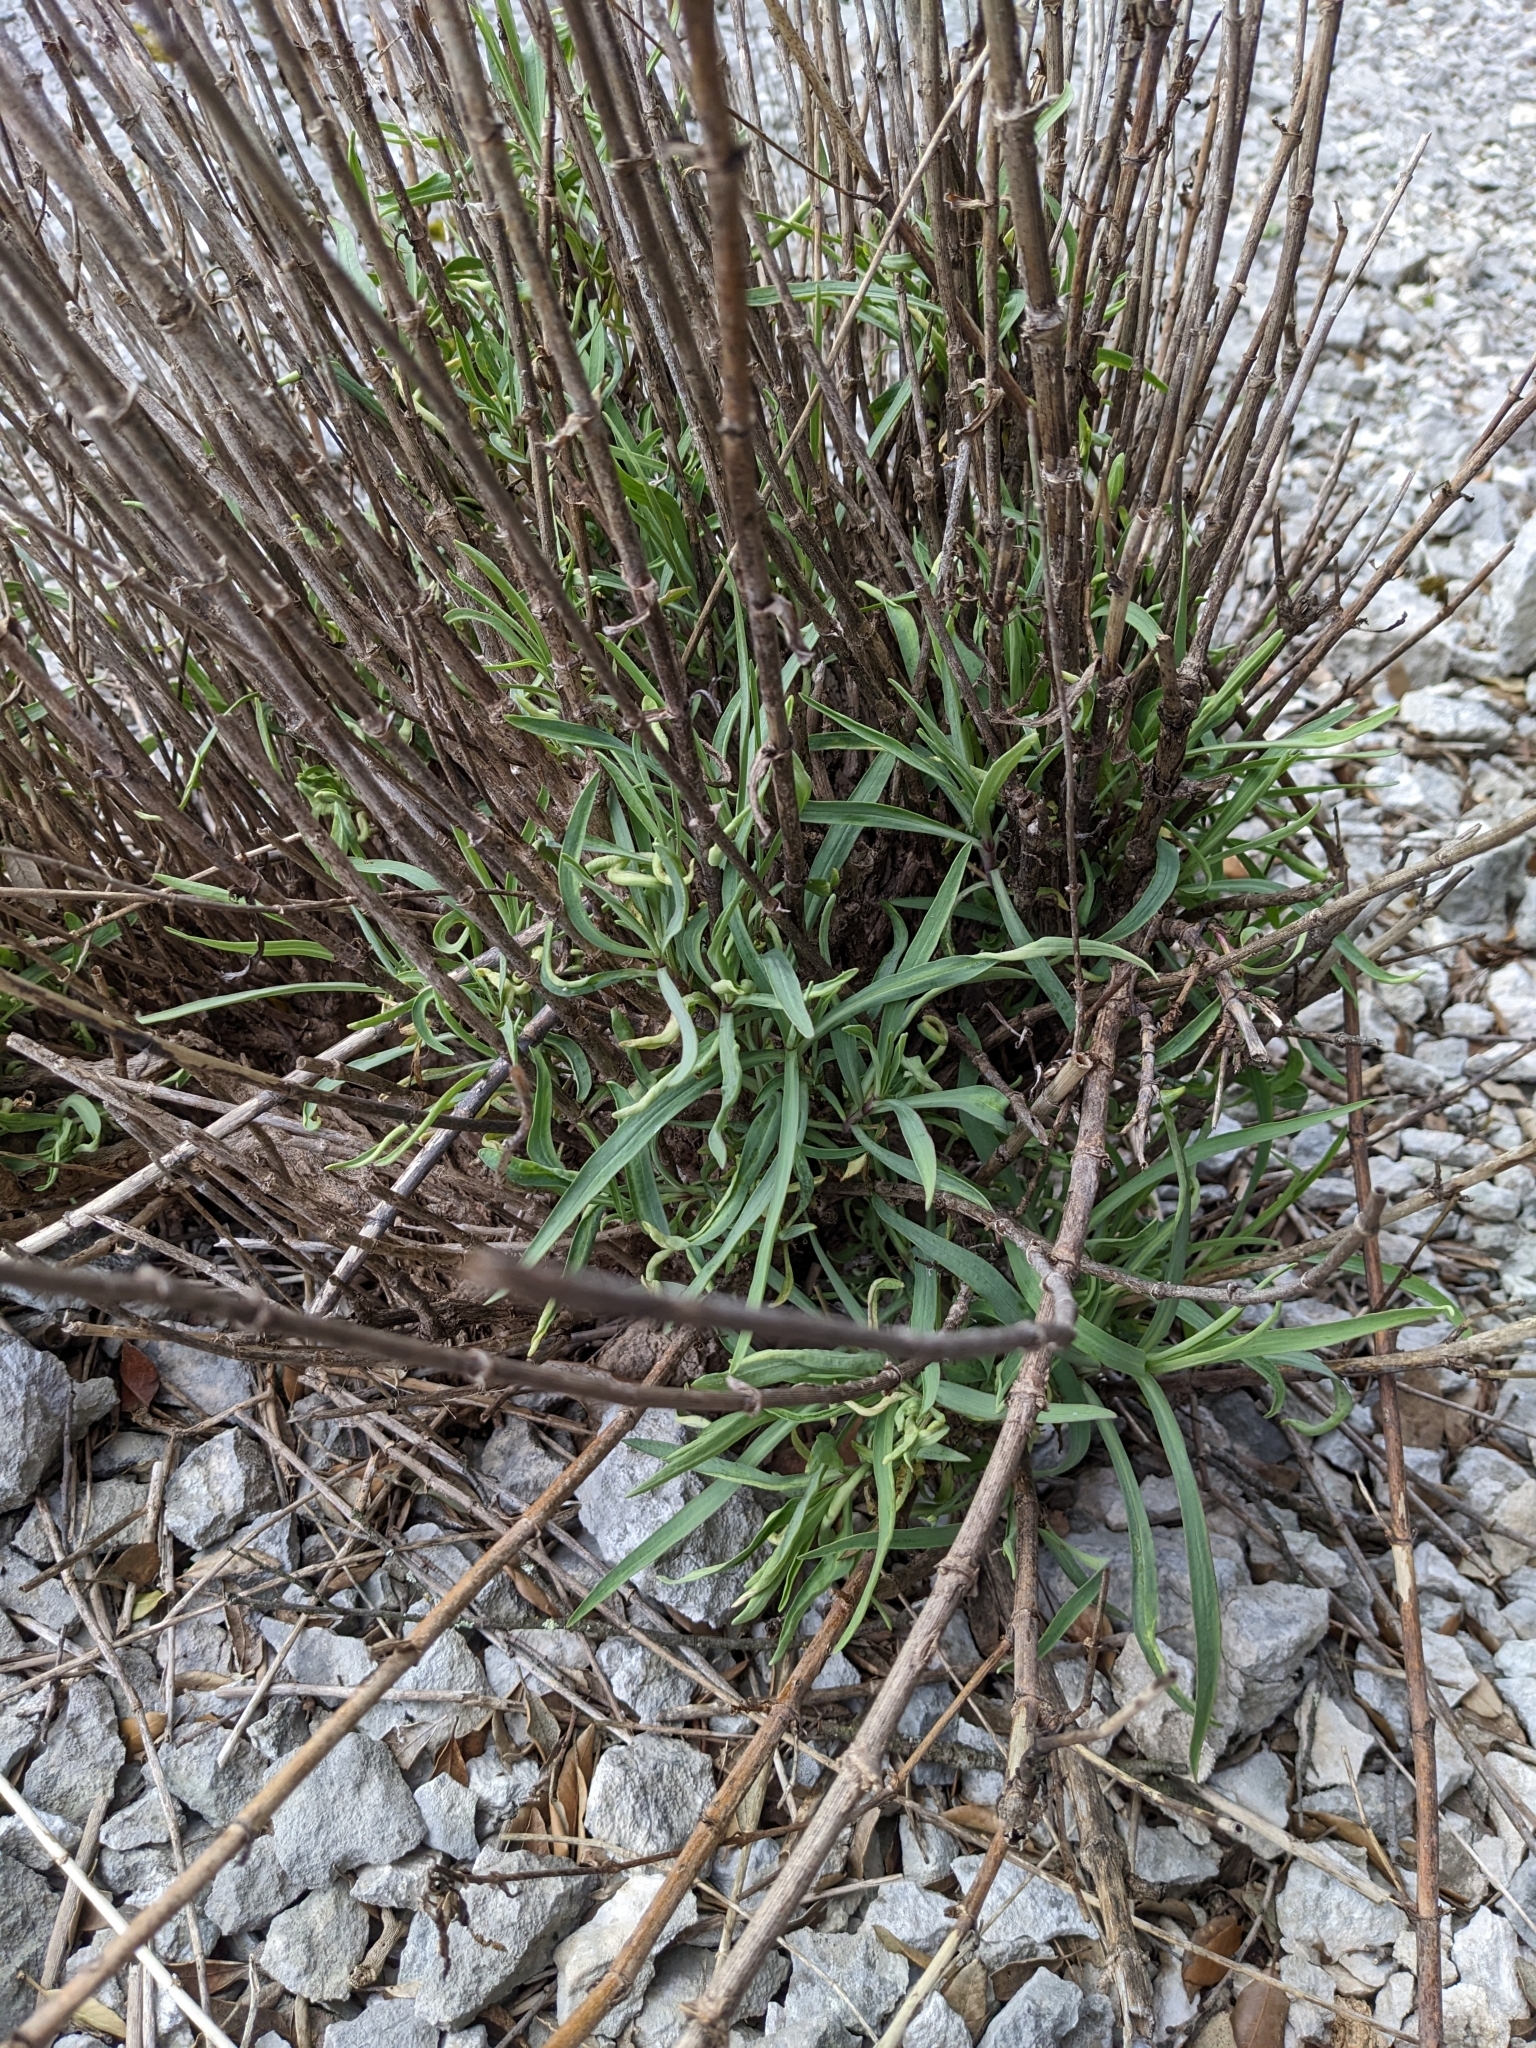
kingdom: Plantae
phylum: Tracheophyta
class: Magnoliopsida
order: Dipsacales
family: Caprifoliaceae
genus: Centranthus
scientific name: Centranthus lecoqii
